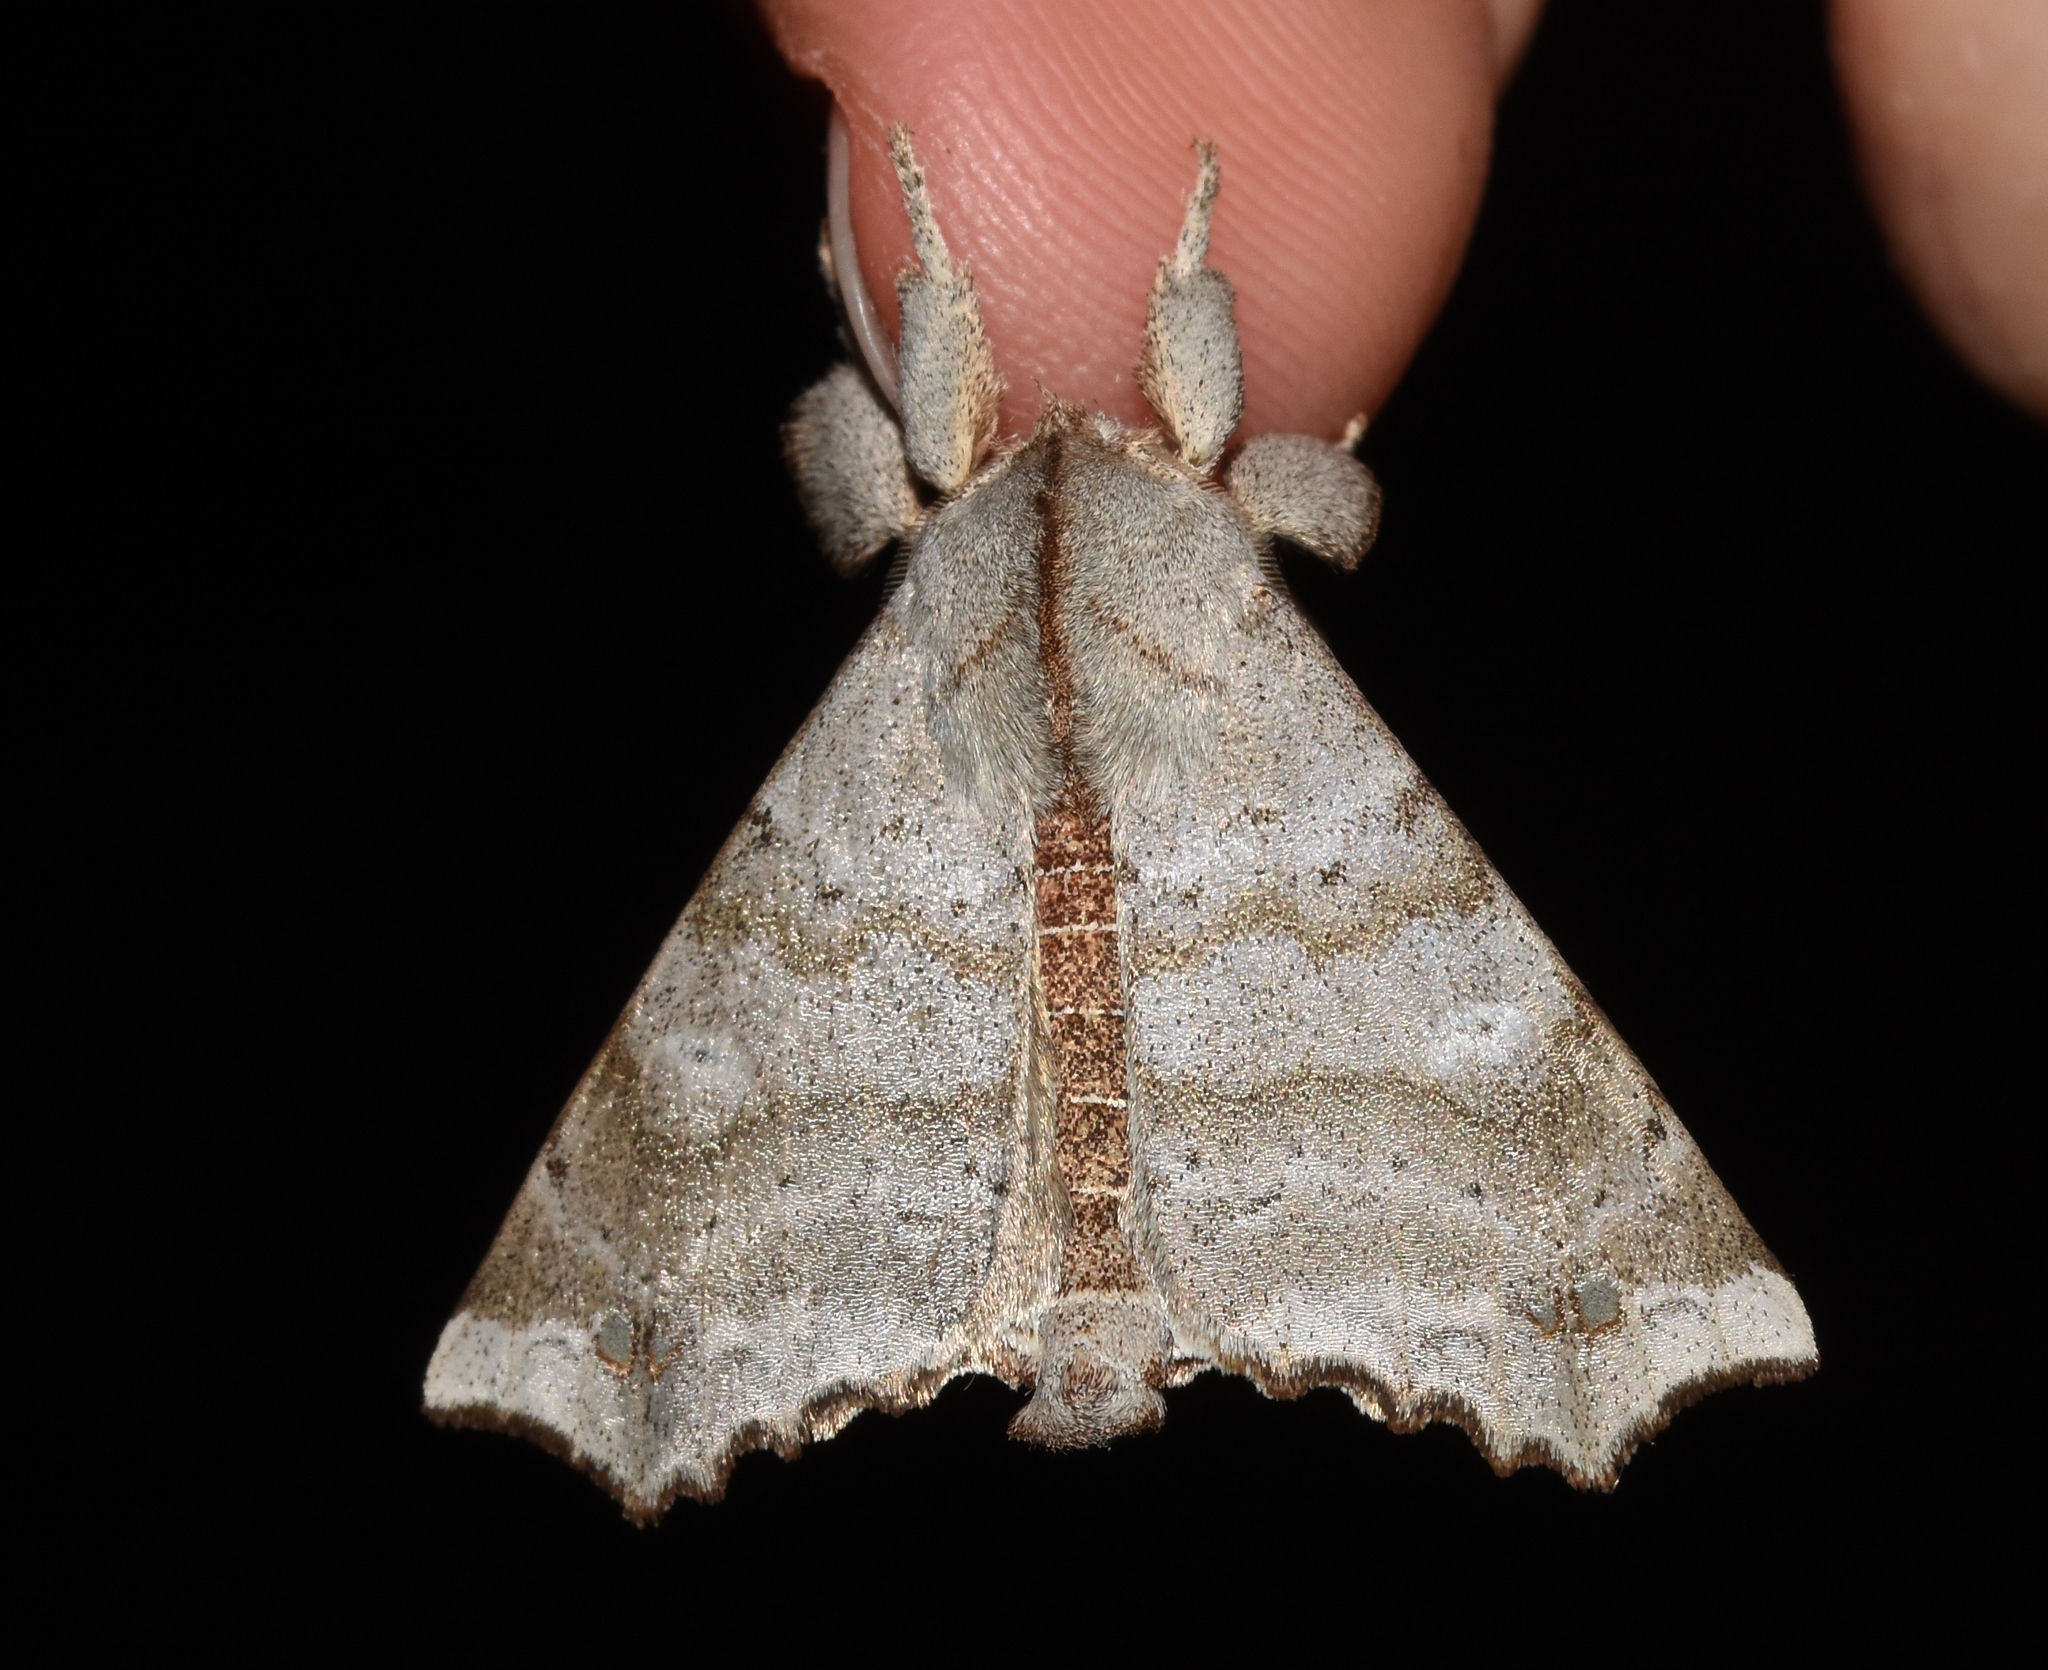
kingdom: Animalia
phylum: Arthropoda
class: Insecta
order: Lepidoptera
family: Apatelodidae
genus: Olceclostera
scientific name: Olceclostera angelica
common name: Angel moth
